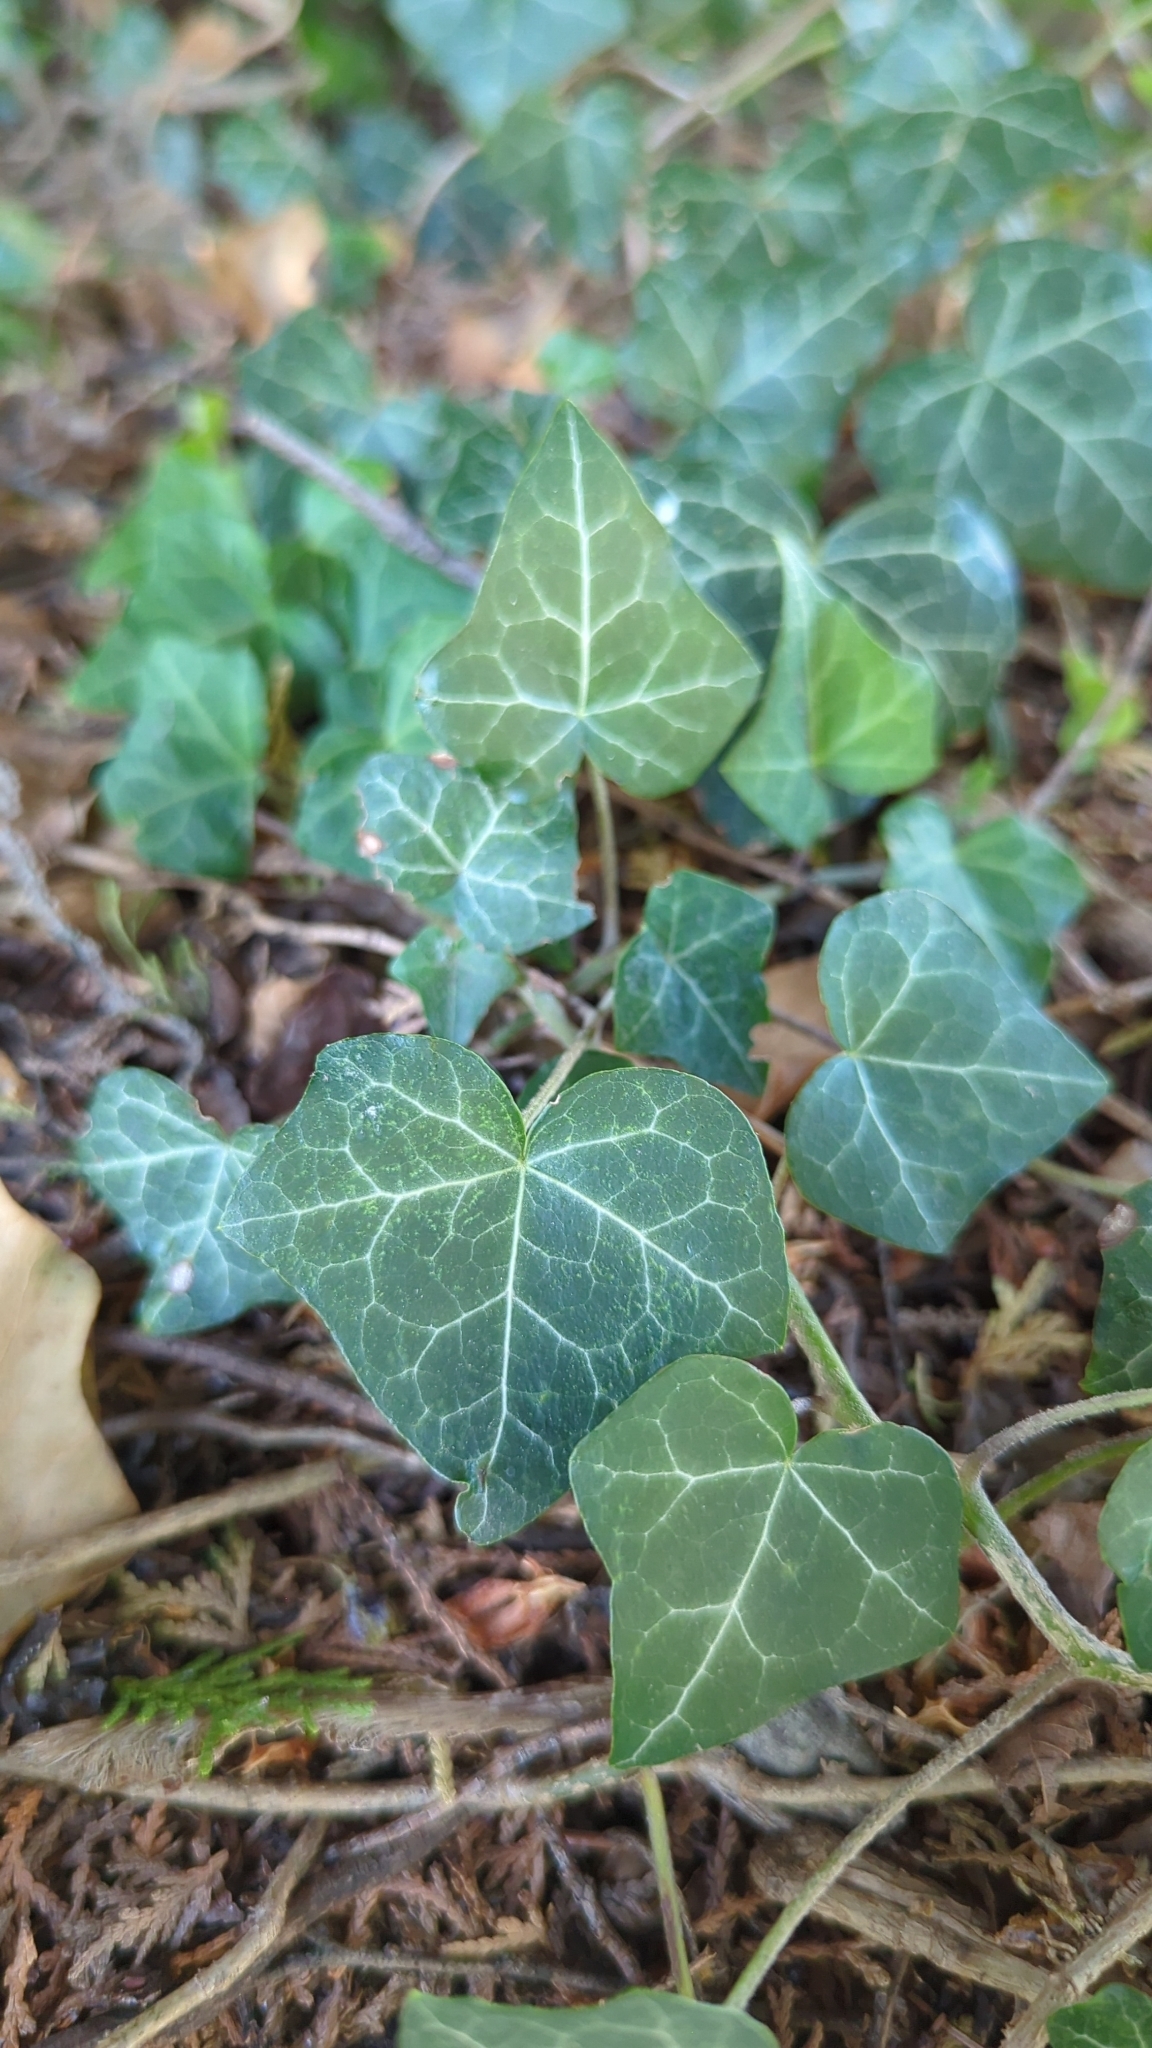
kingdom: Plantae
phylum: Tracheophyta
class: Magnoliopsida
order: Apiales
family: Araliaceae
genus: Hedera
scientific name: Hedera helix
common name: Ivy
